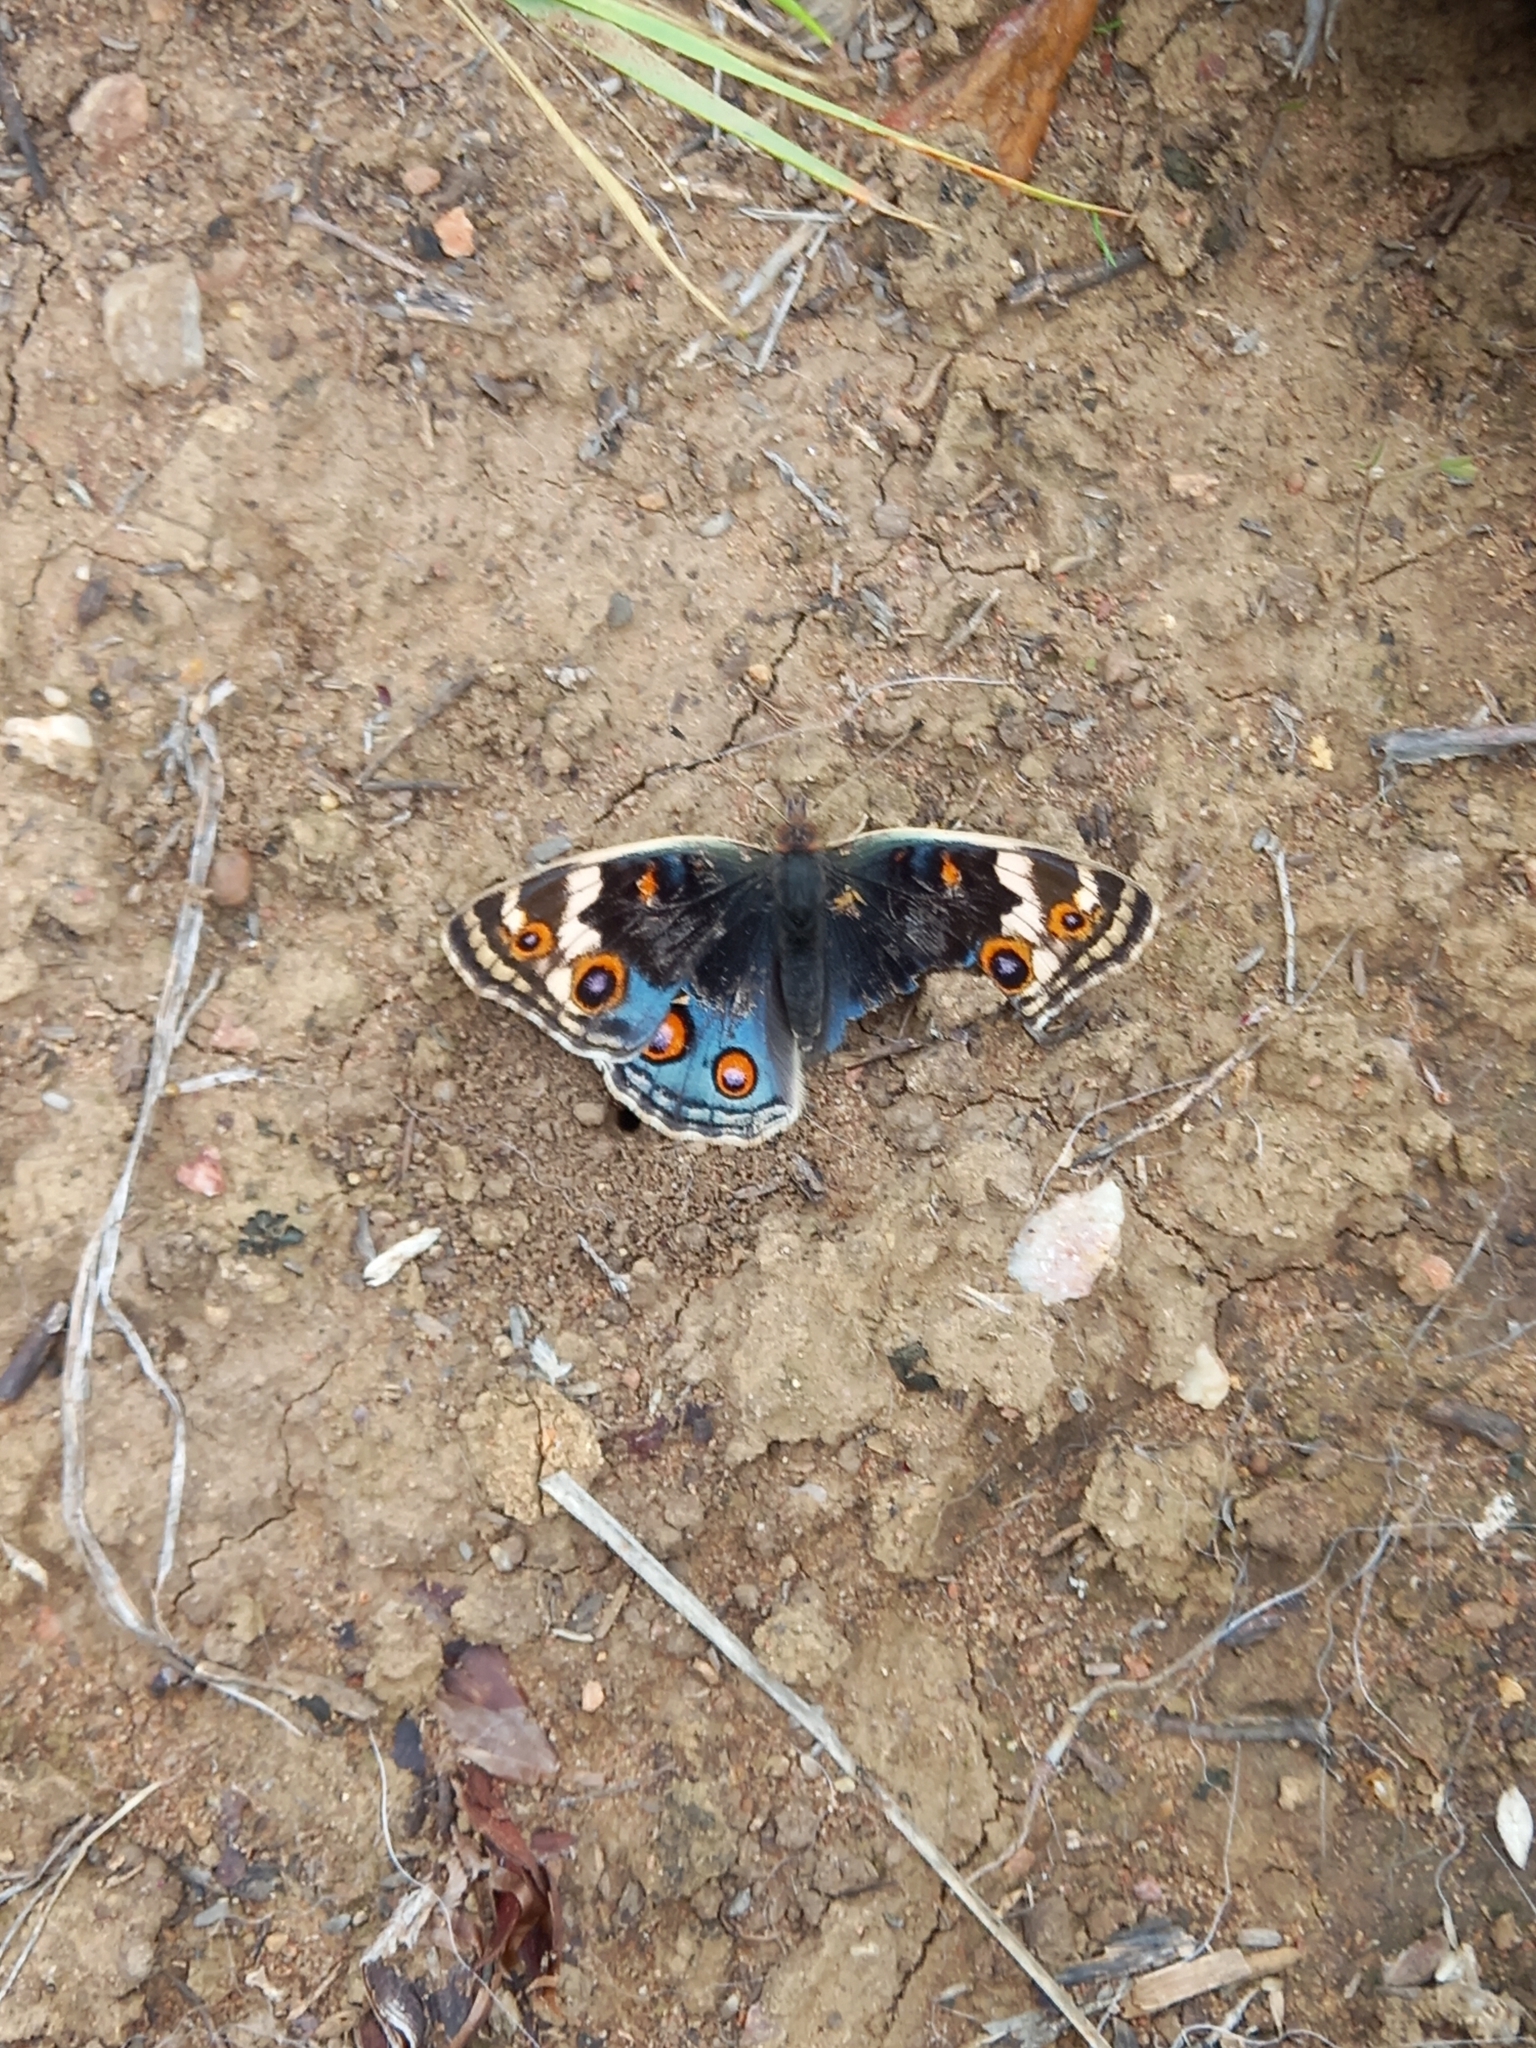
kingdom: Animalia
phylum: Arthropoda
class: Insecta
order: Lepidoptera
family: Nymphalidae
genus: Junonia
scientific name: Junonia orithya
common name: Blue pansy
